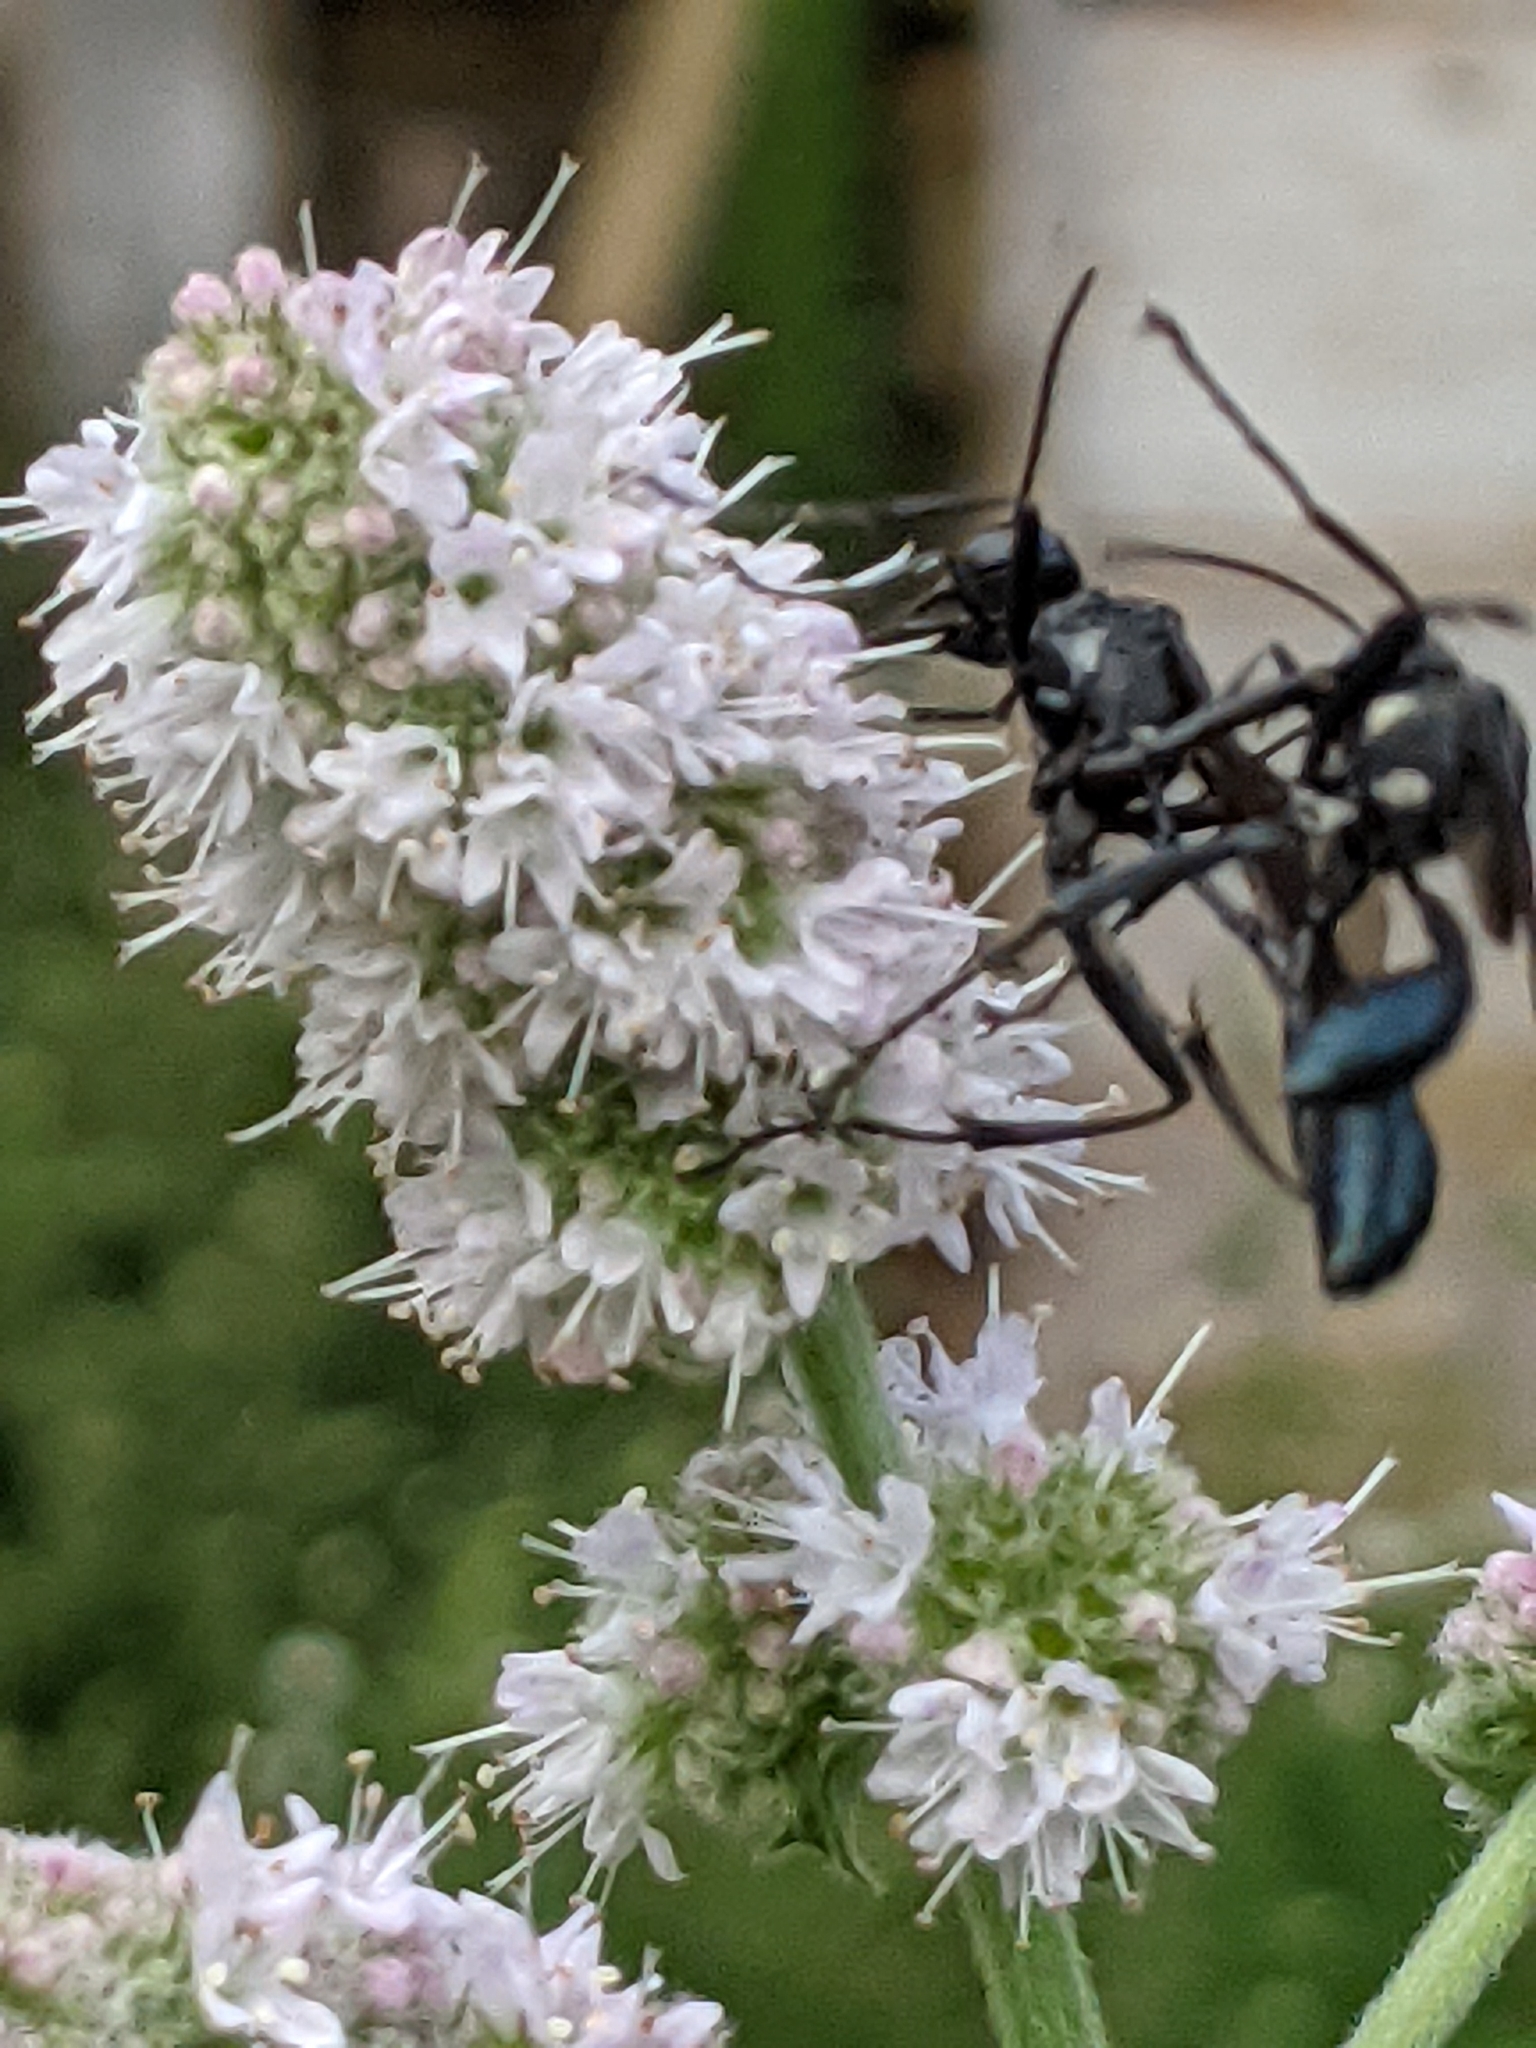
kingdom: Animalia
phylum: Arthropoda
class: Insecta
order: Hymenoptera
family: Sphecidae
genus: Eremnophila
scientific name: Eremnophila aureonotata
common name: Gold-marked thread-waisted wasp
